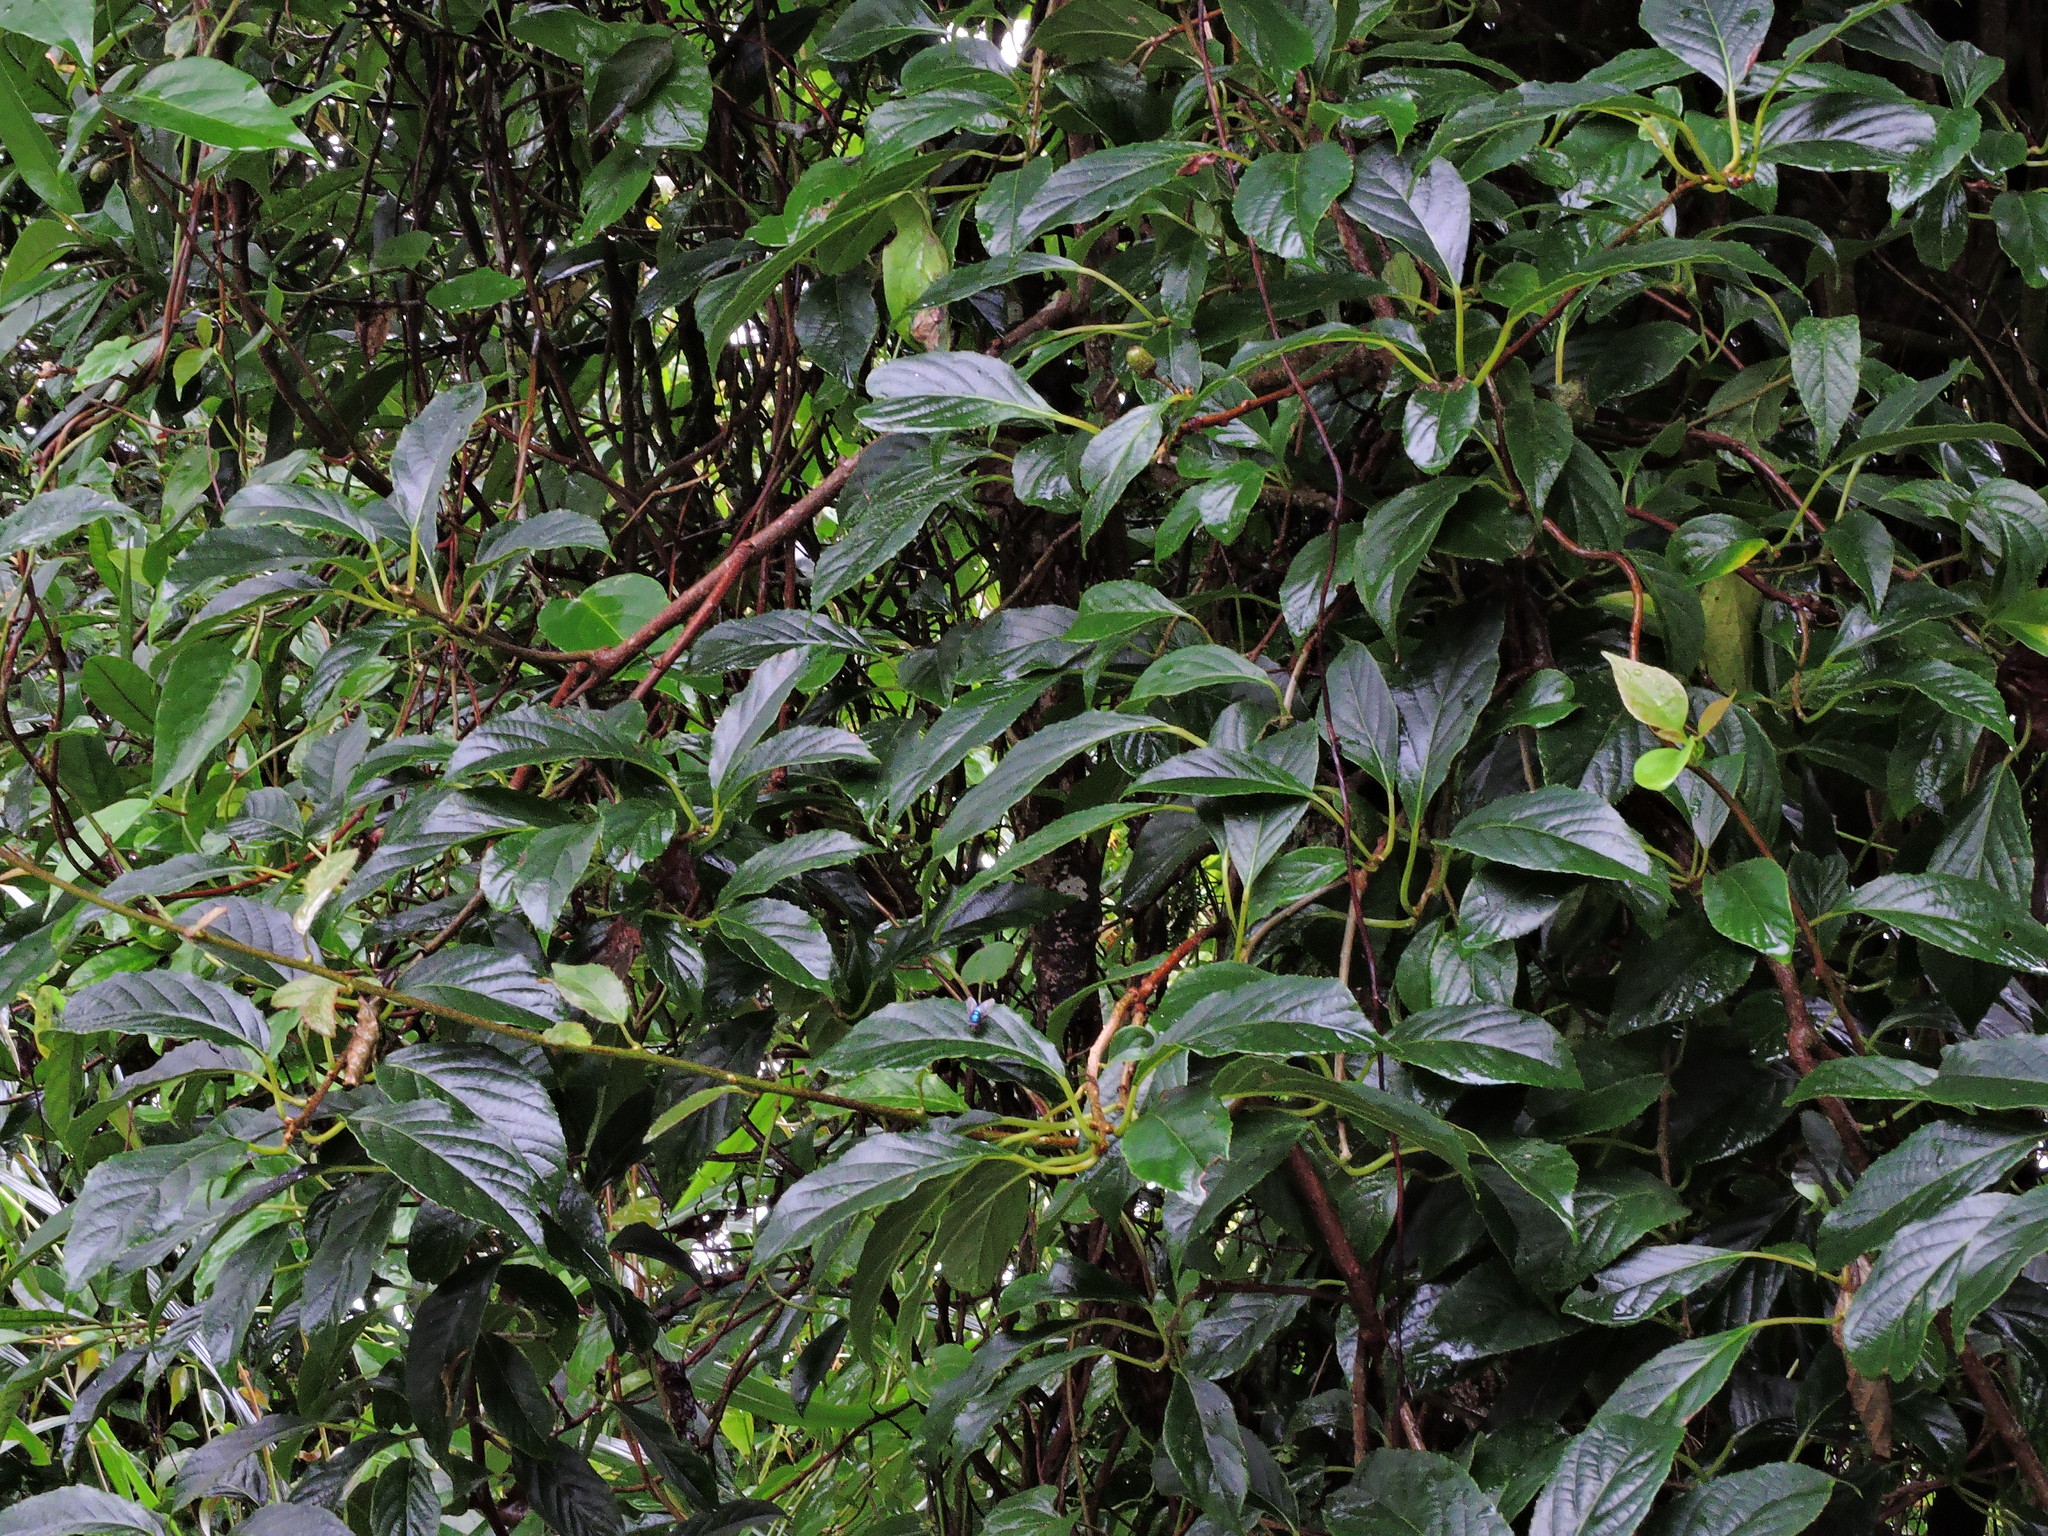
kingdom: Plantae
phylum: Tracheophyta
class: Magnoliopsida
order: Ericales
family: Actinidiaceae
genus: Actinidia
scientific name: Actinidia callosa
